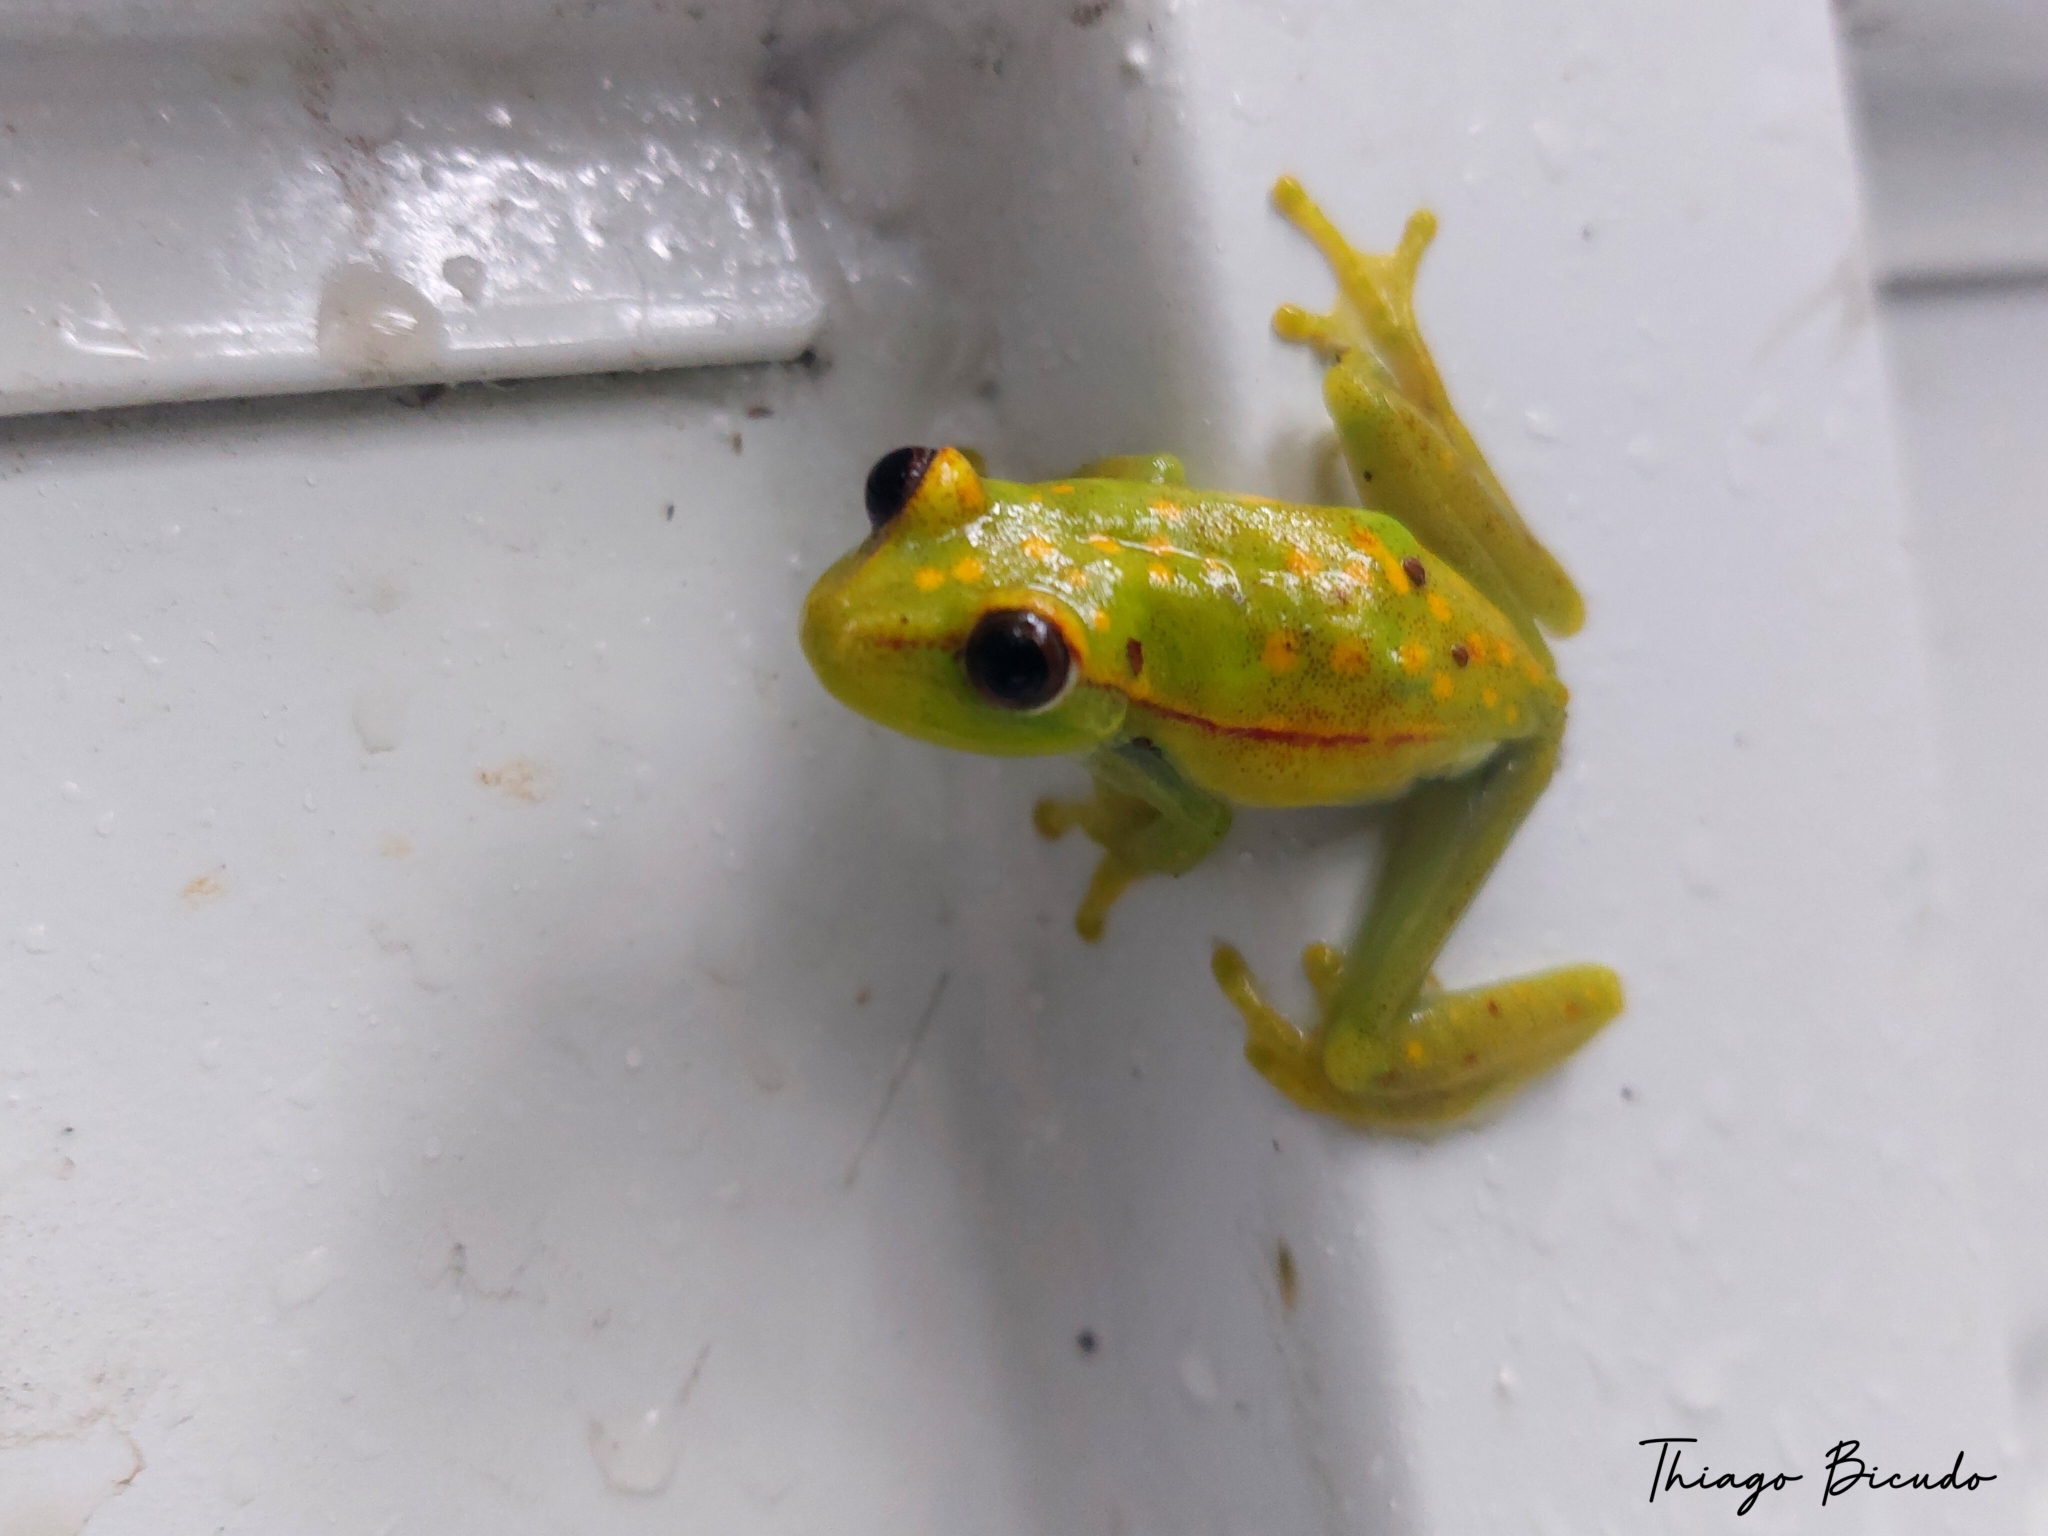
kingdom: Animalia
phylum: Chordata
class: Amphibia
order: Anura
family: Hylidae
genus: Boana
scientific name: Boana punctata
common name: Polka-dot treefrog
